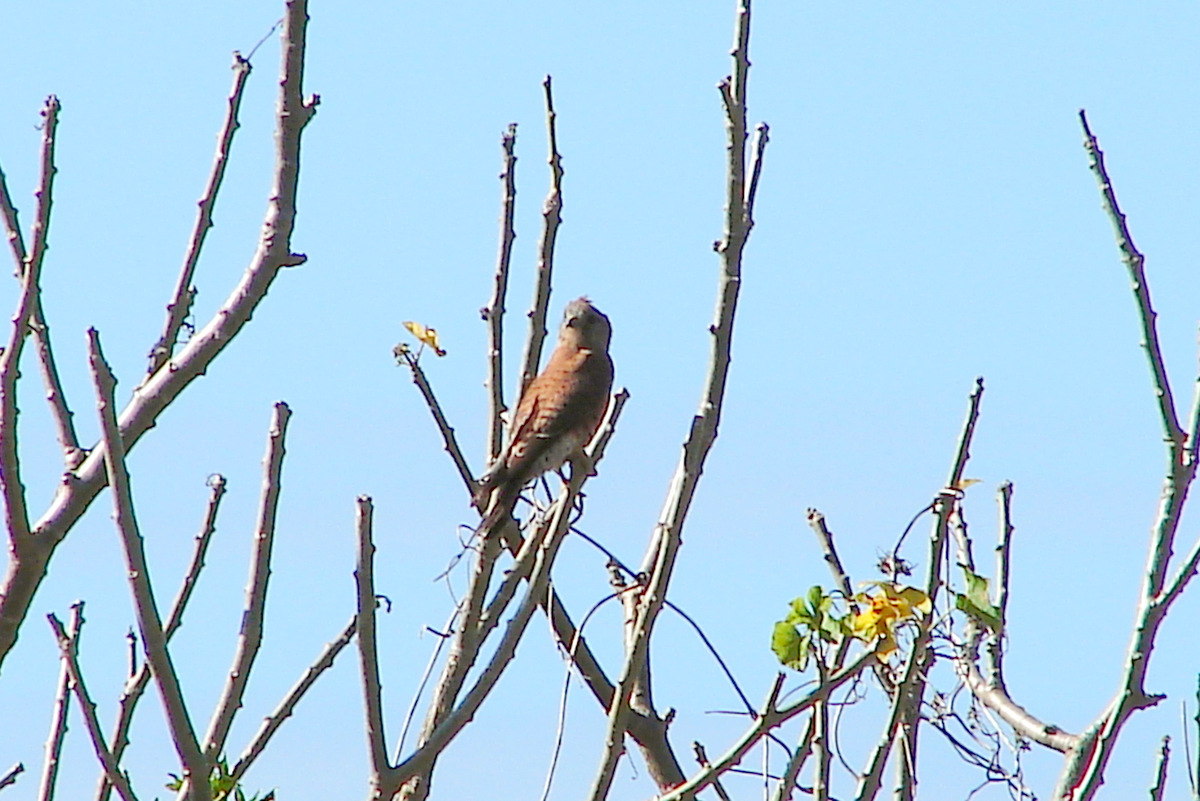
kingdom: Animalia
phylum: Chordata
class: Aves
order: Falconiformes
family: Falconidae
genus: Falco
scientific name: Falco newtoni
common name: Malagasy kestrel
